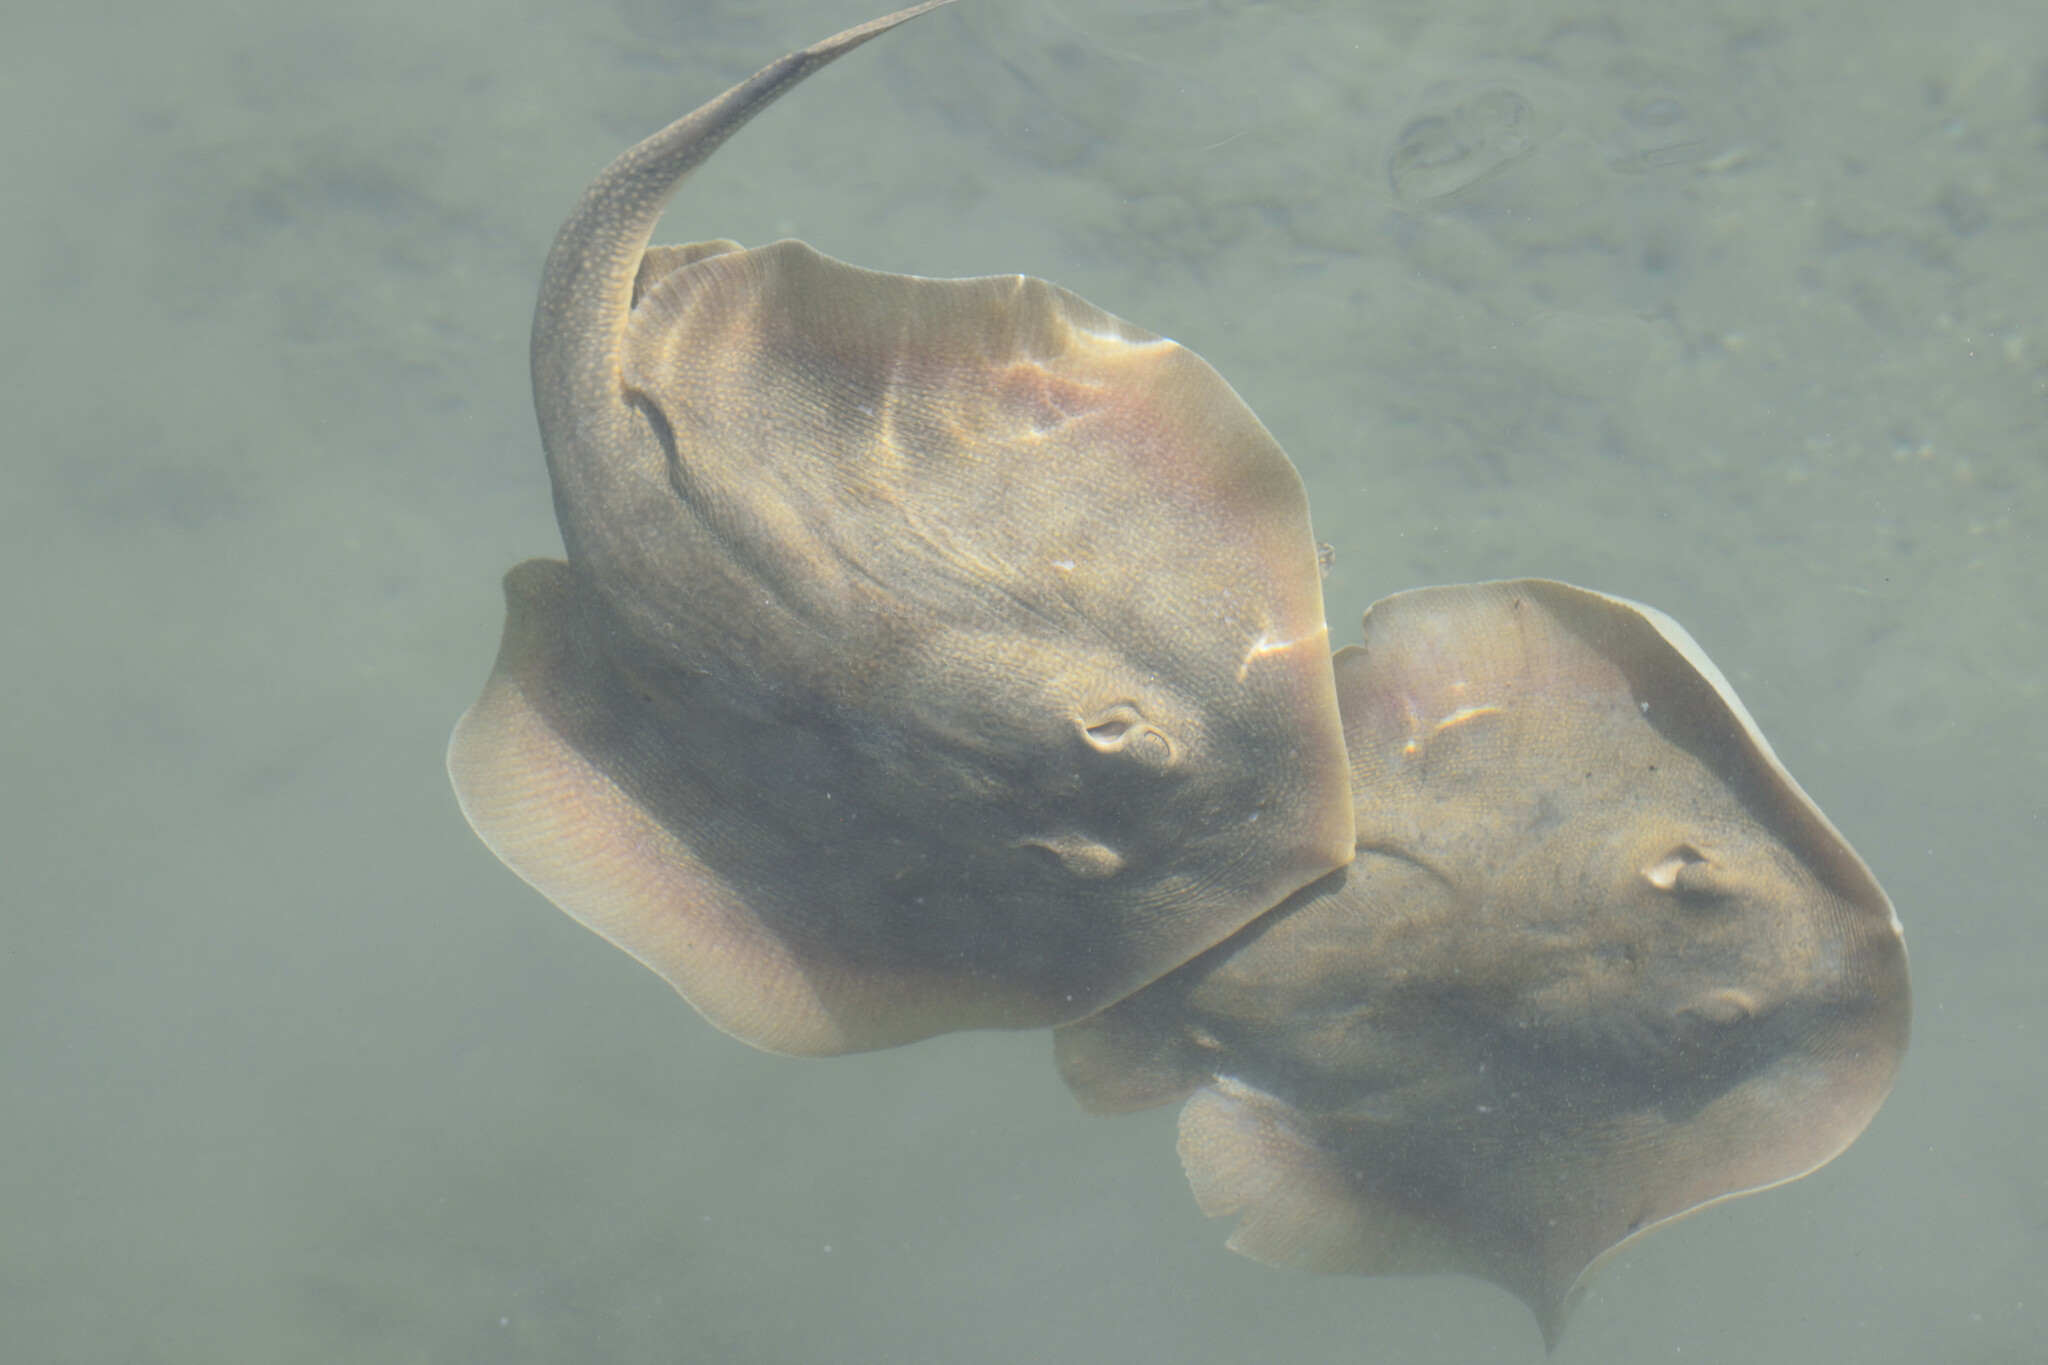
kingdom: Animalia
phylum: Chordata
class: Elasmobranchii
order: Myliobatiformes
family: Urolophidae
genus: Urolophus
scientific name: Urolophus halleri
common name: Round stingray
